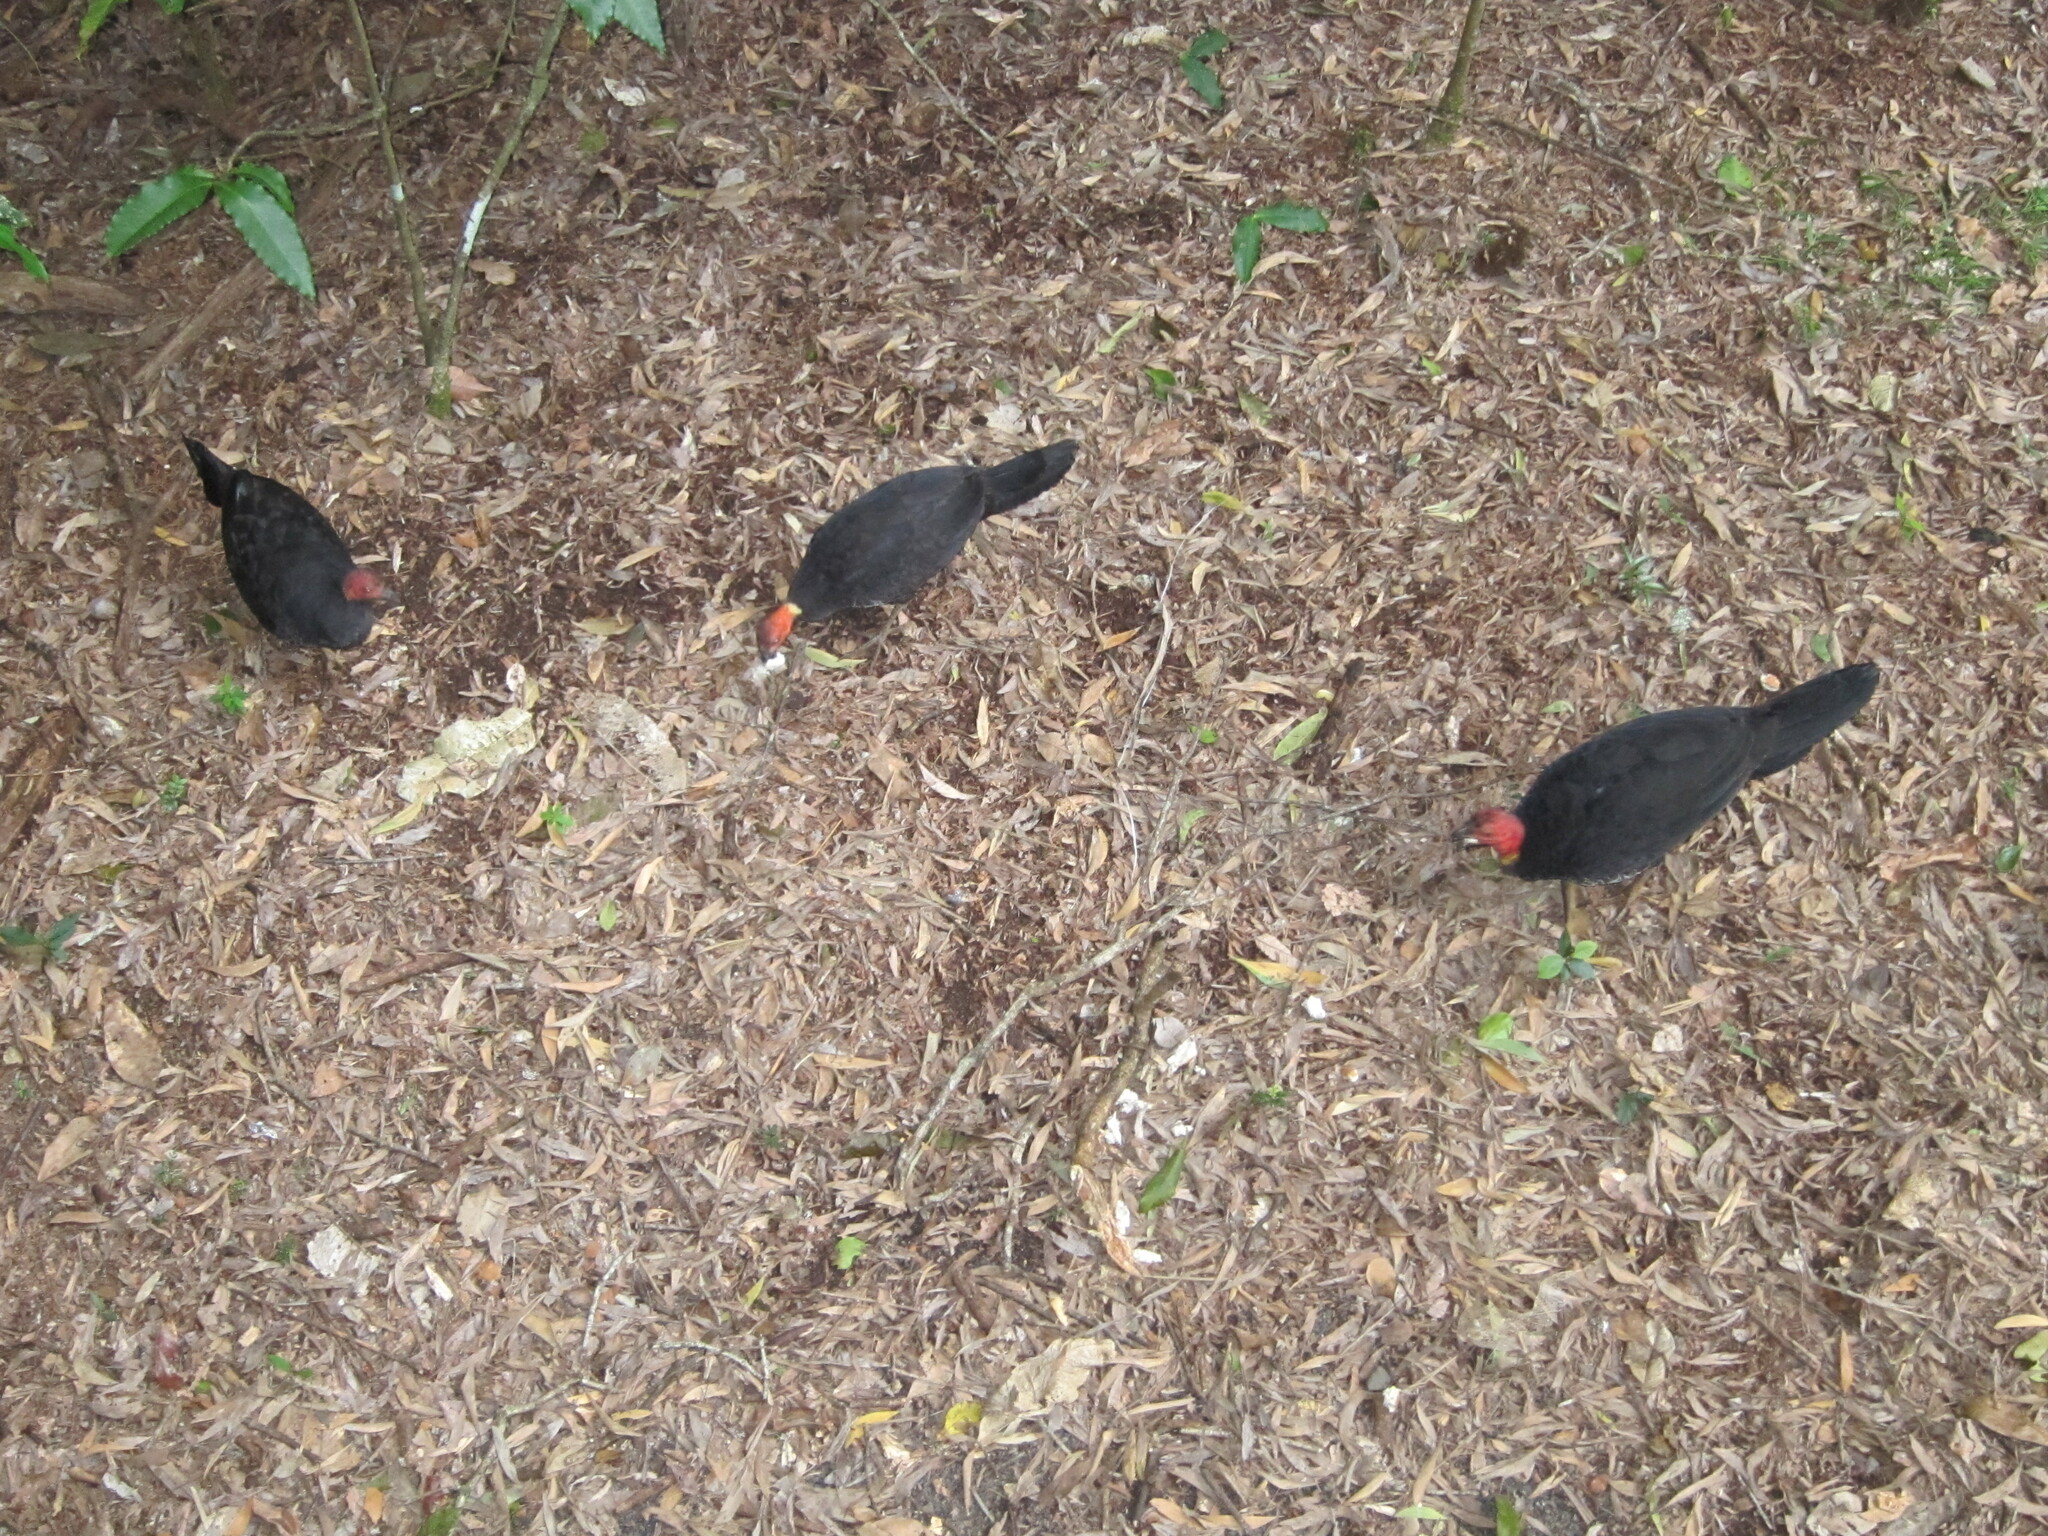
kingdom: Animalia
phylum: Chordata
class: Aves
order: Galliformes
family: Megapodiidae
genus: Alectura
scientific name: Alectura lathami
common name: Australian brushturkey
